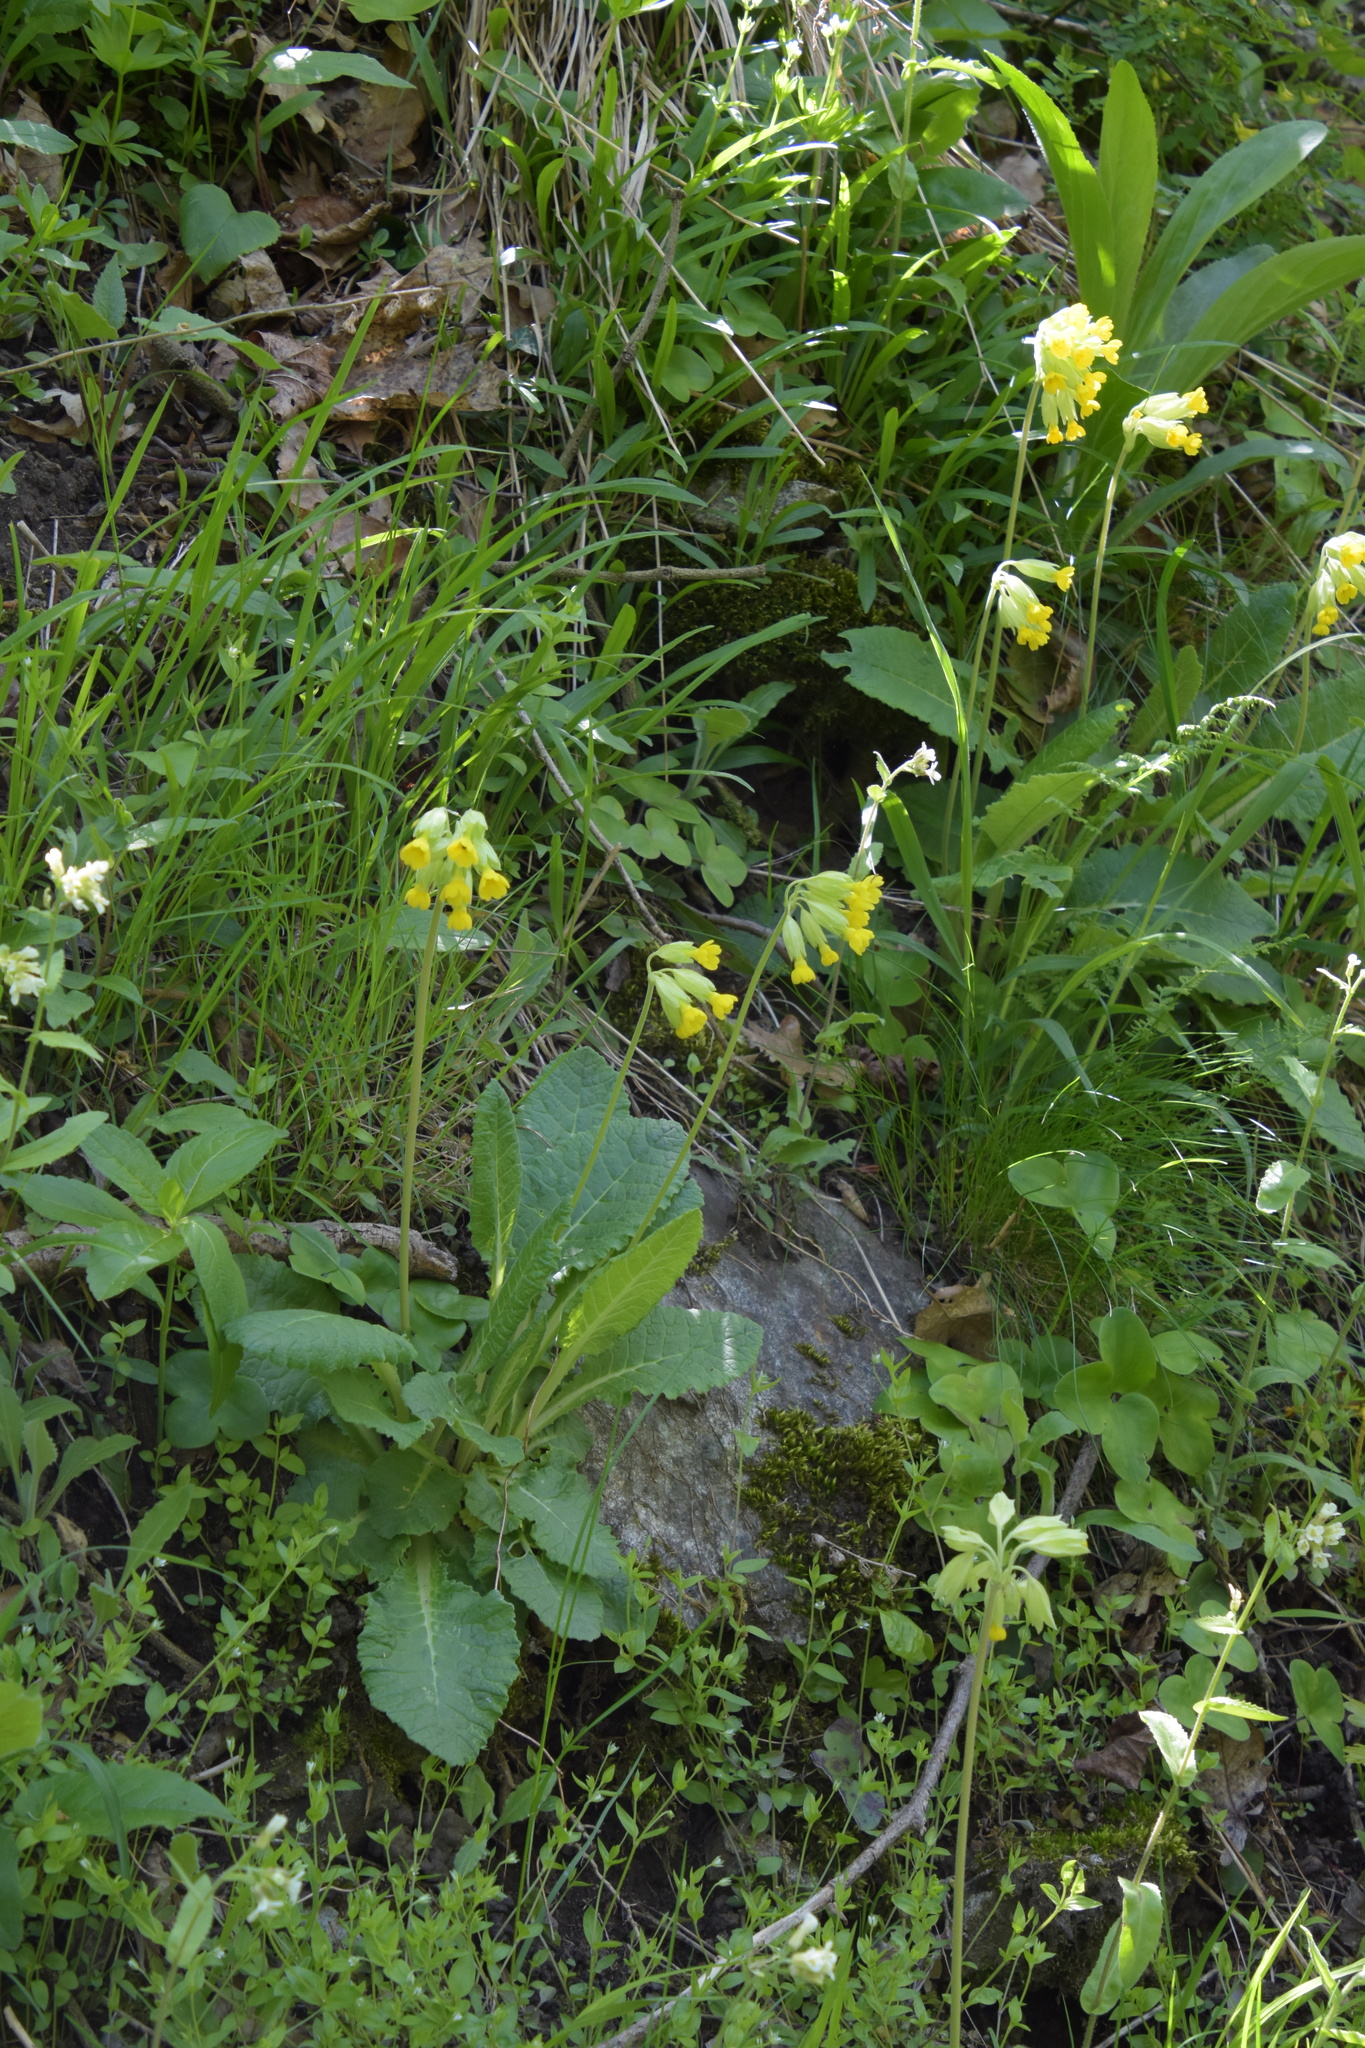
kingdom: Plantae
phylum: Tracheophyta
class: Magnoliopsida
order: Ericales
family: Primulaceae
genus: Primula
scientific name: Primula veris
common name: Cowslip
